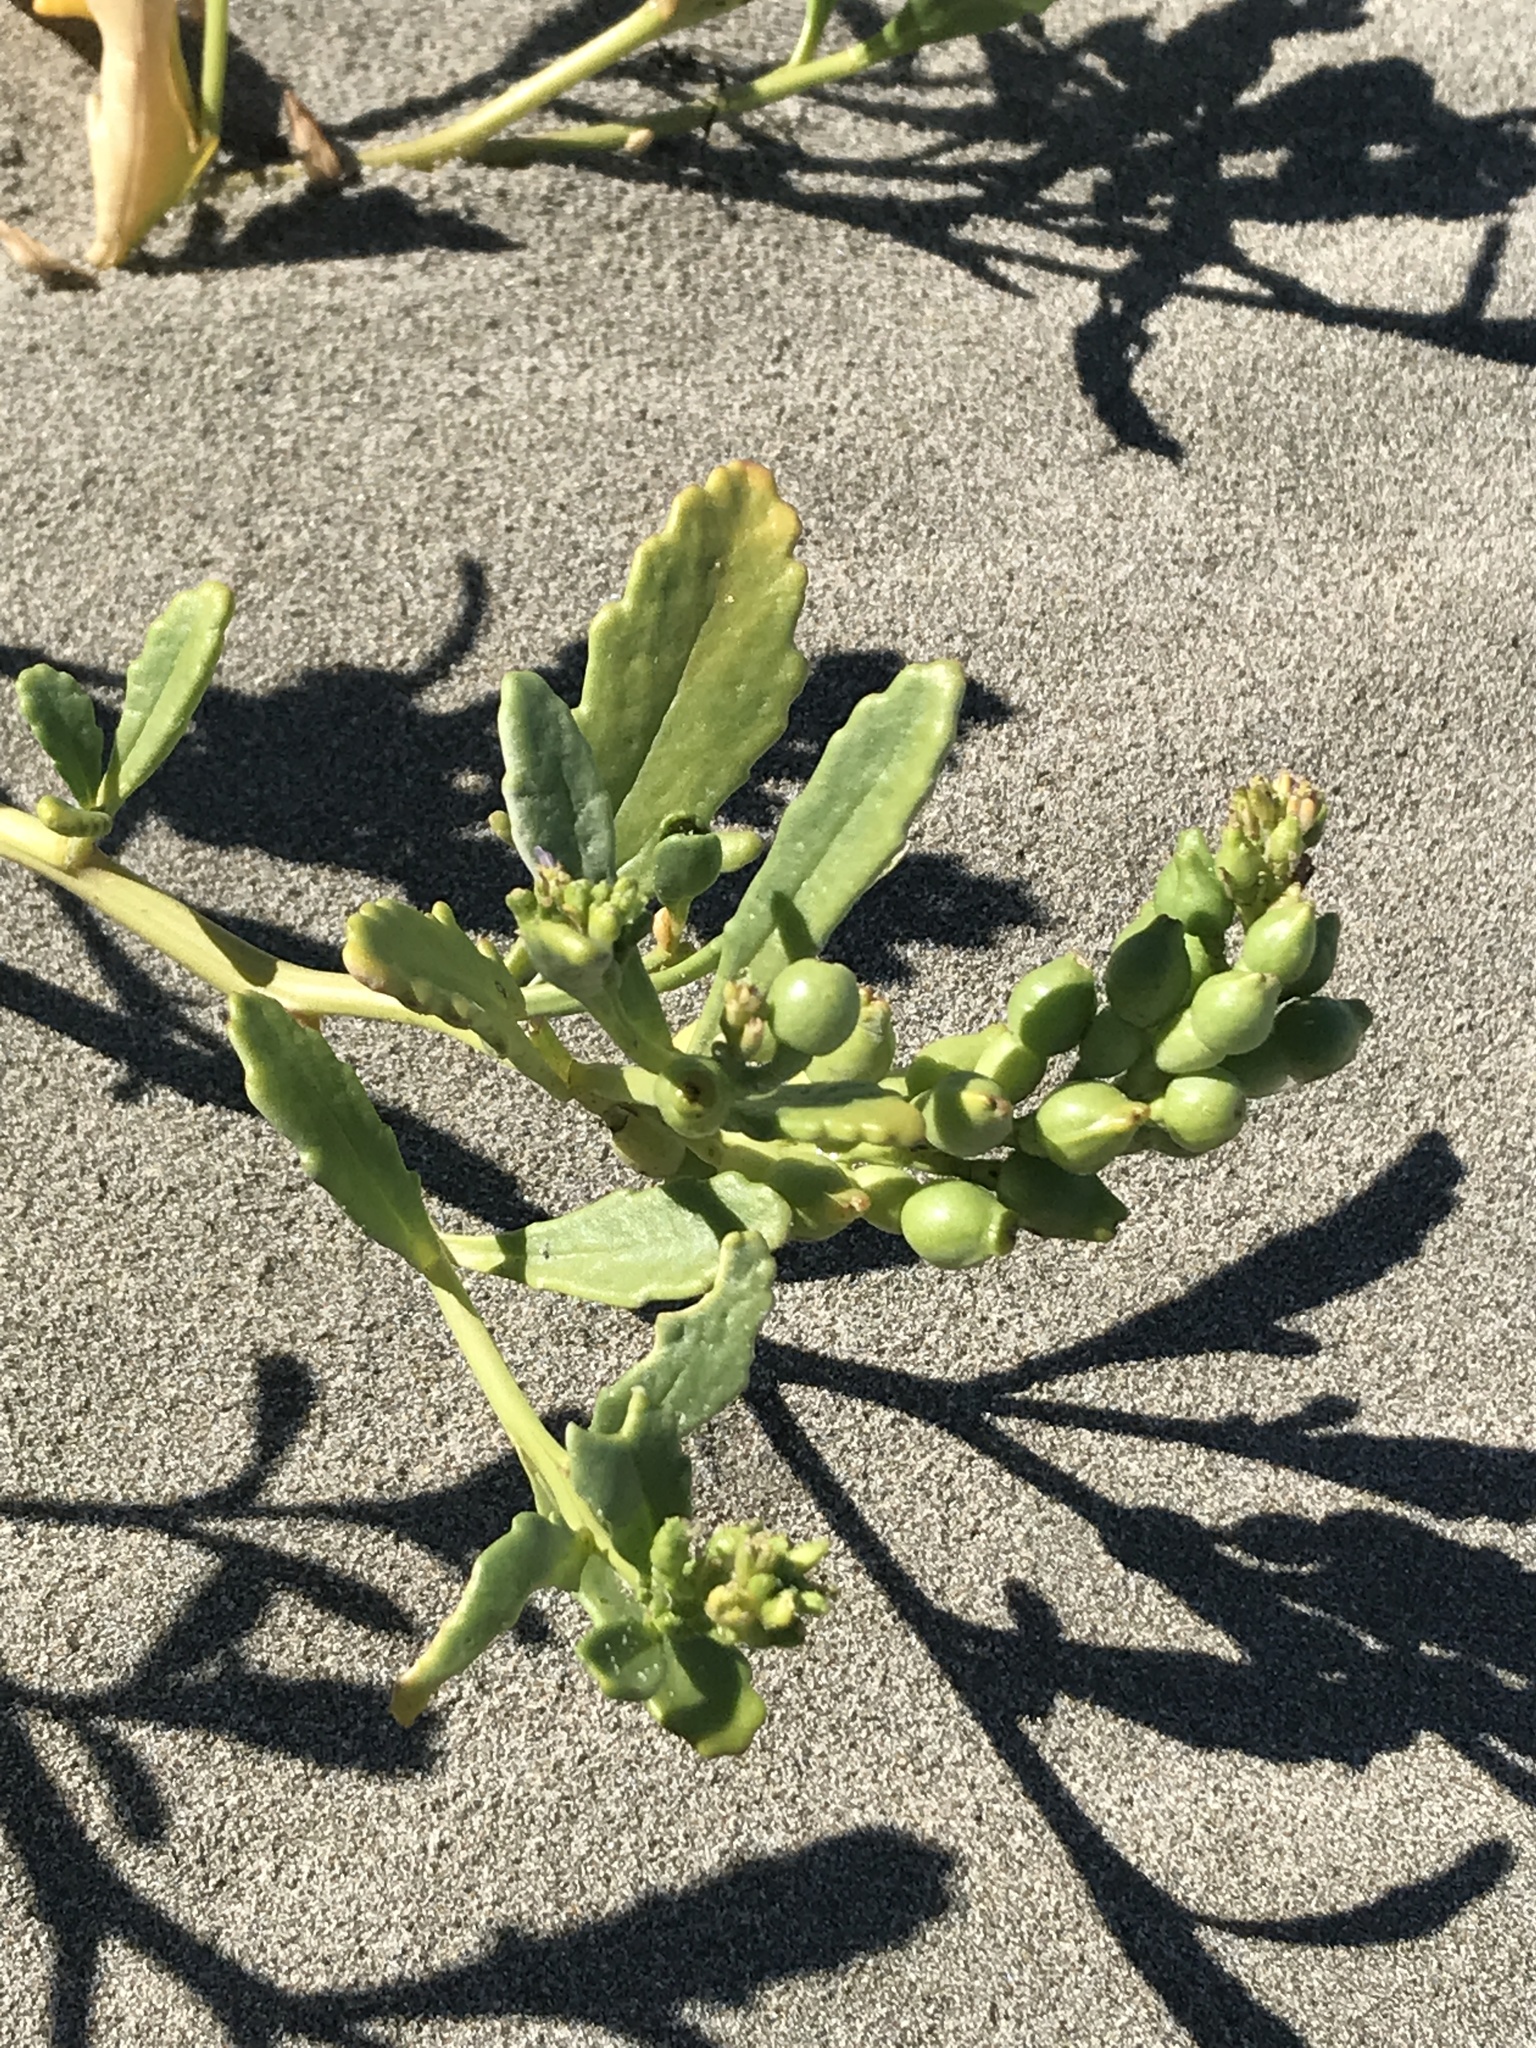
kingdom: Plantae
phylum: Tracheophyta
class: Magnoliopsida
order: Brassicales
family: Brassicaceae
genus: Cakile
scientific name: Cakile edentula
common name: American sea rocket
